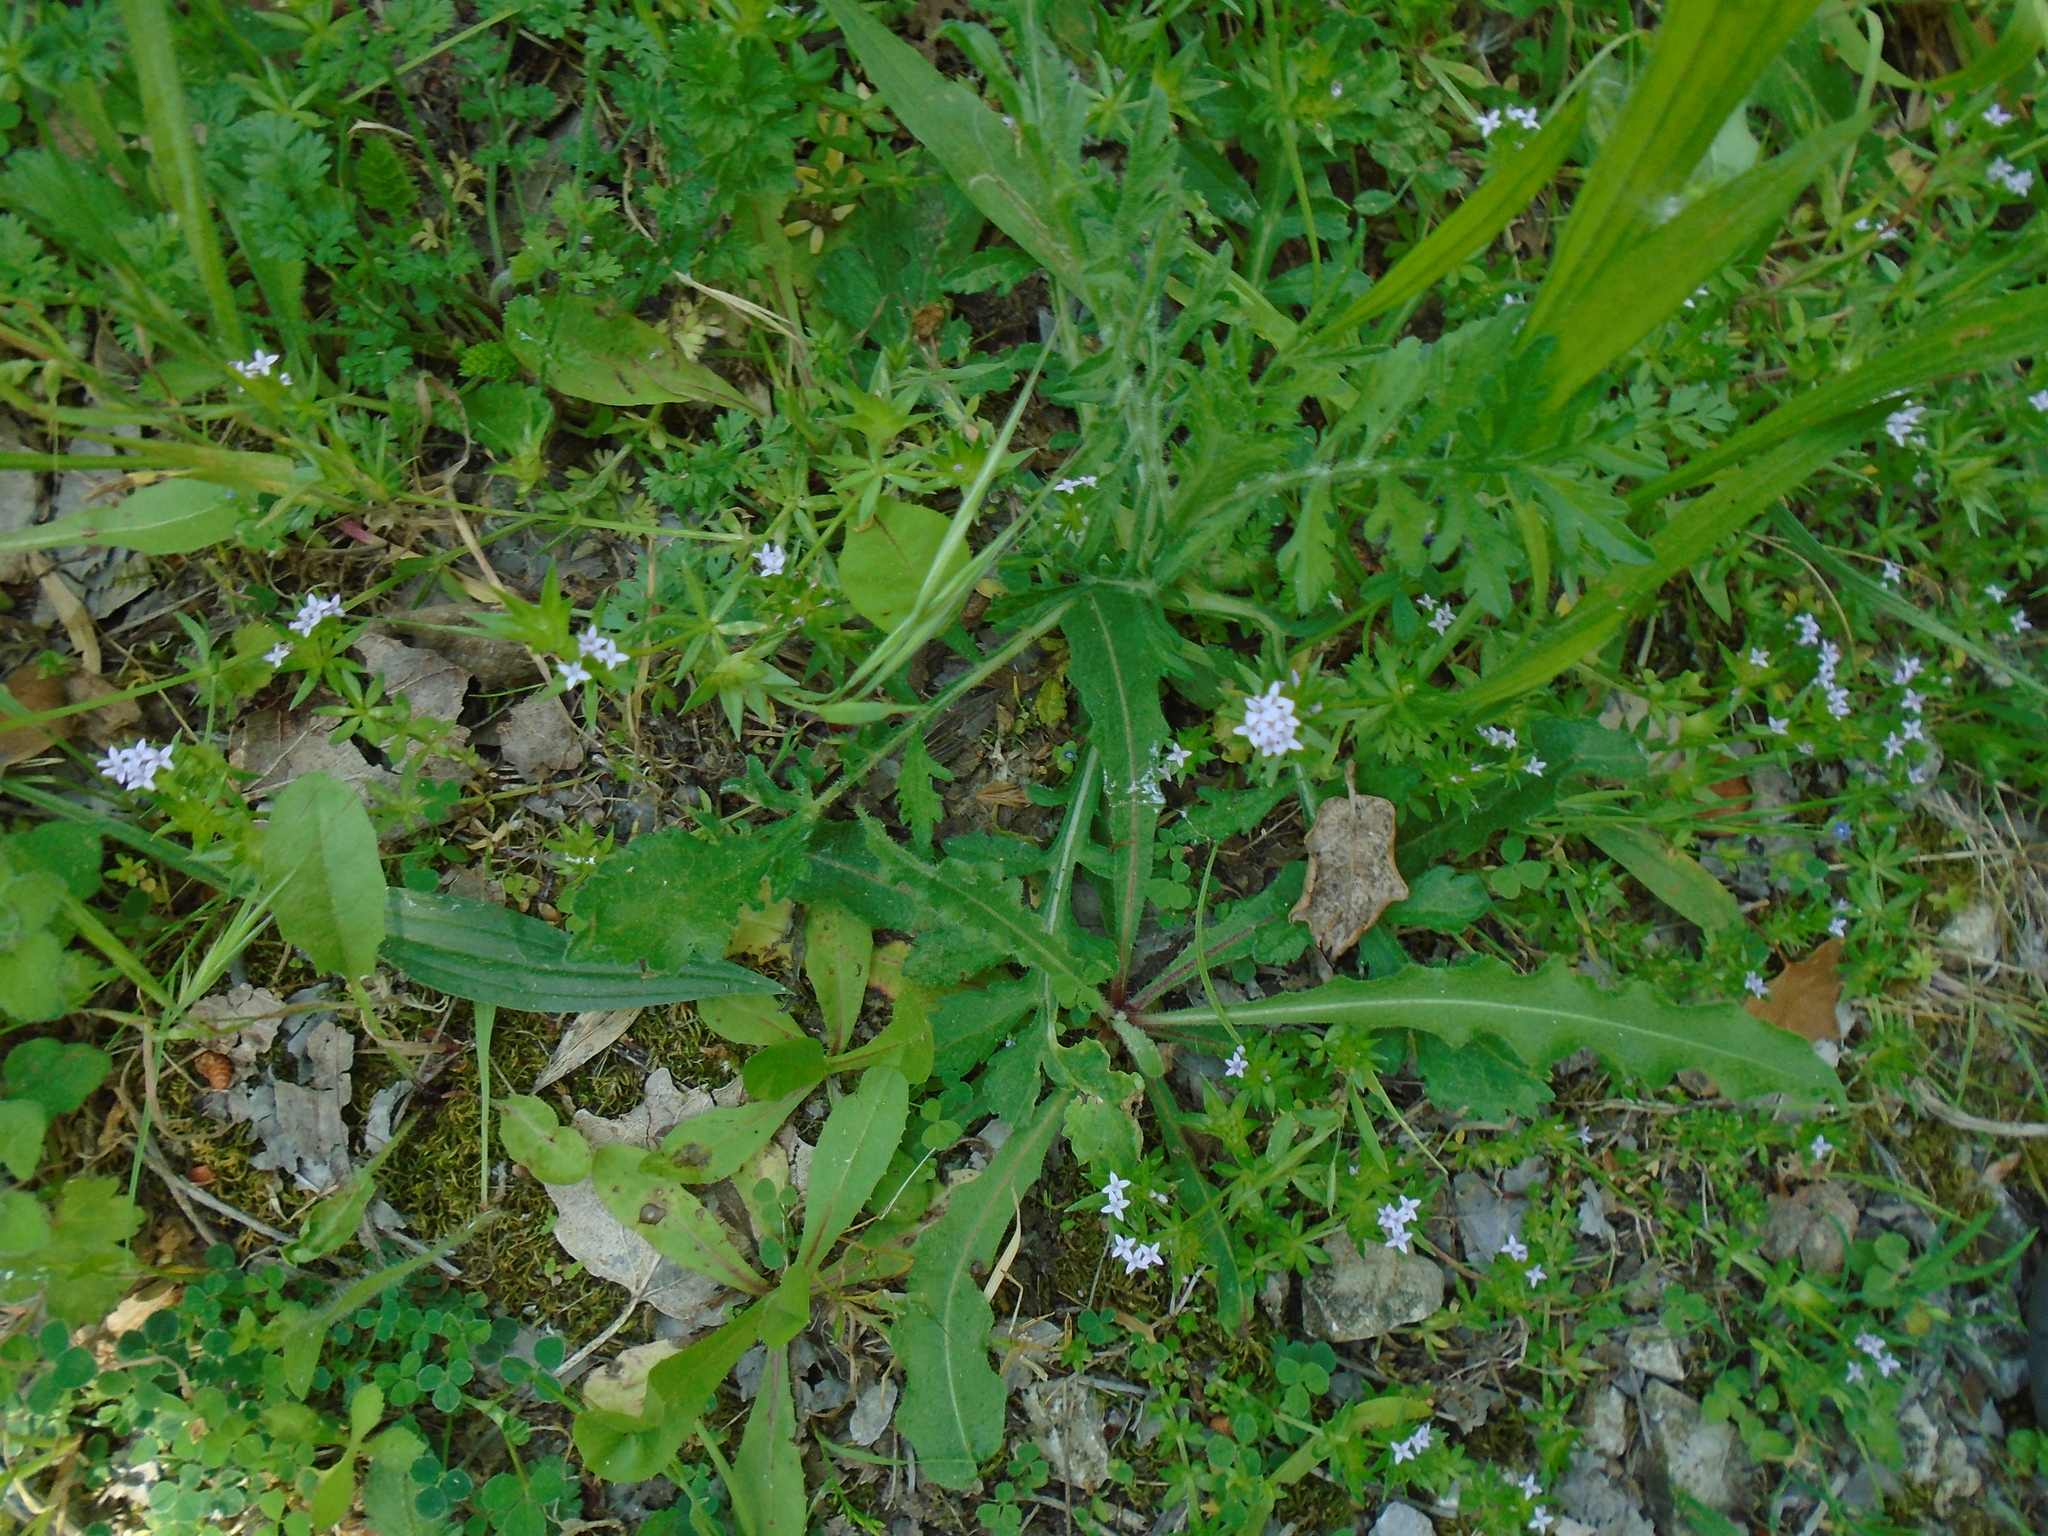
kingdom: Plantae
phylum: Tracheophyta
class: Magnoliopsida
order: Gentianales
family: Rubiaceae
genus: Sherardia
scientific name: Sherardia arvensis
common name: Field madder
